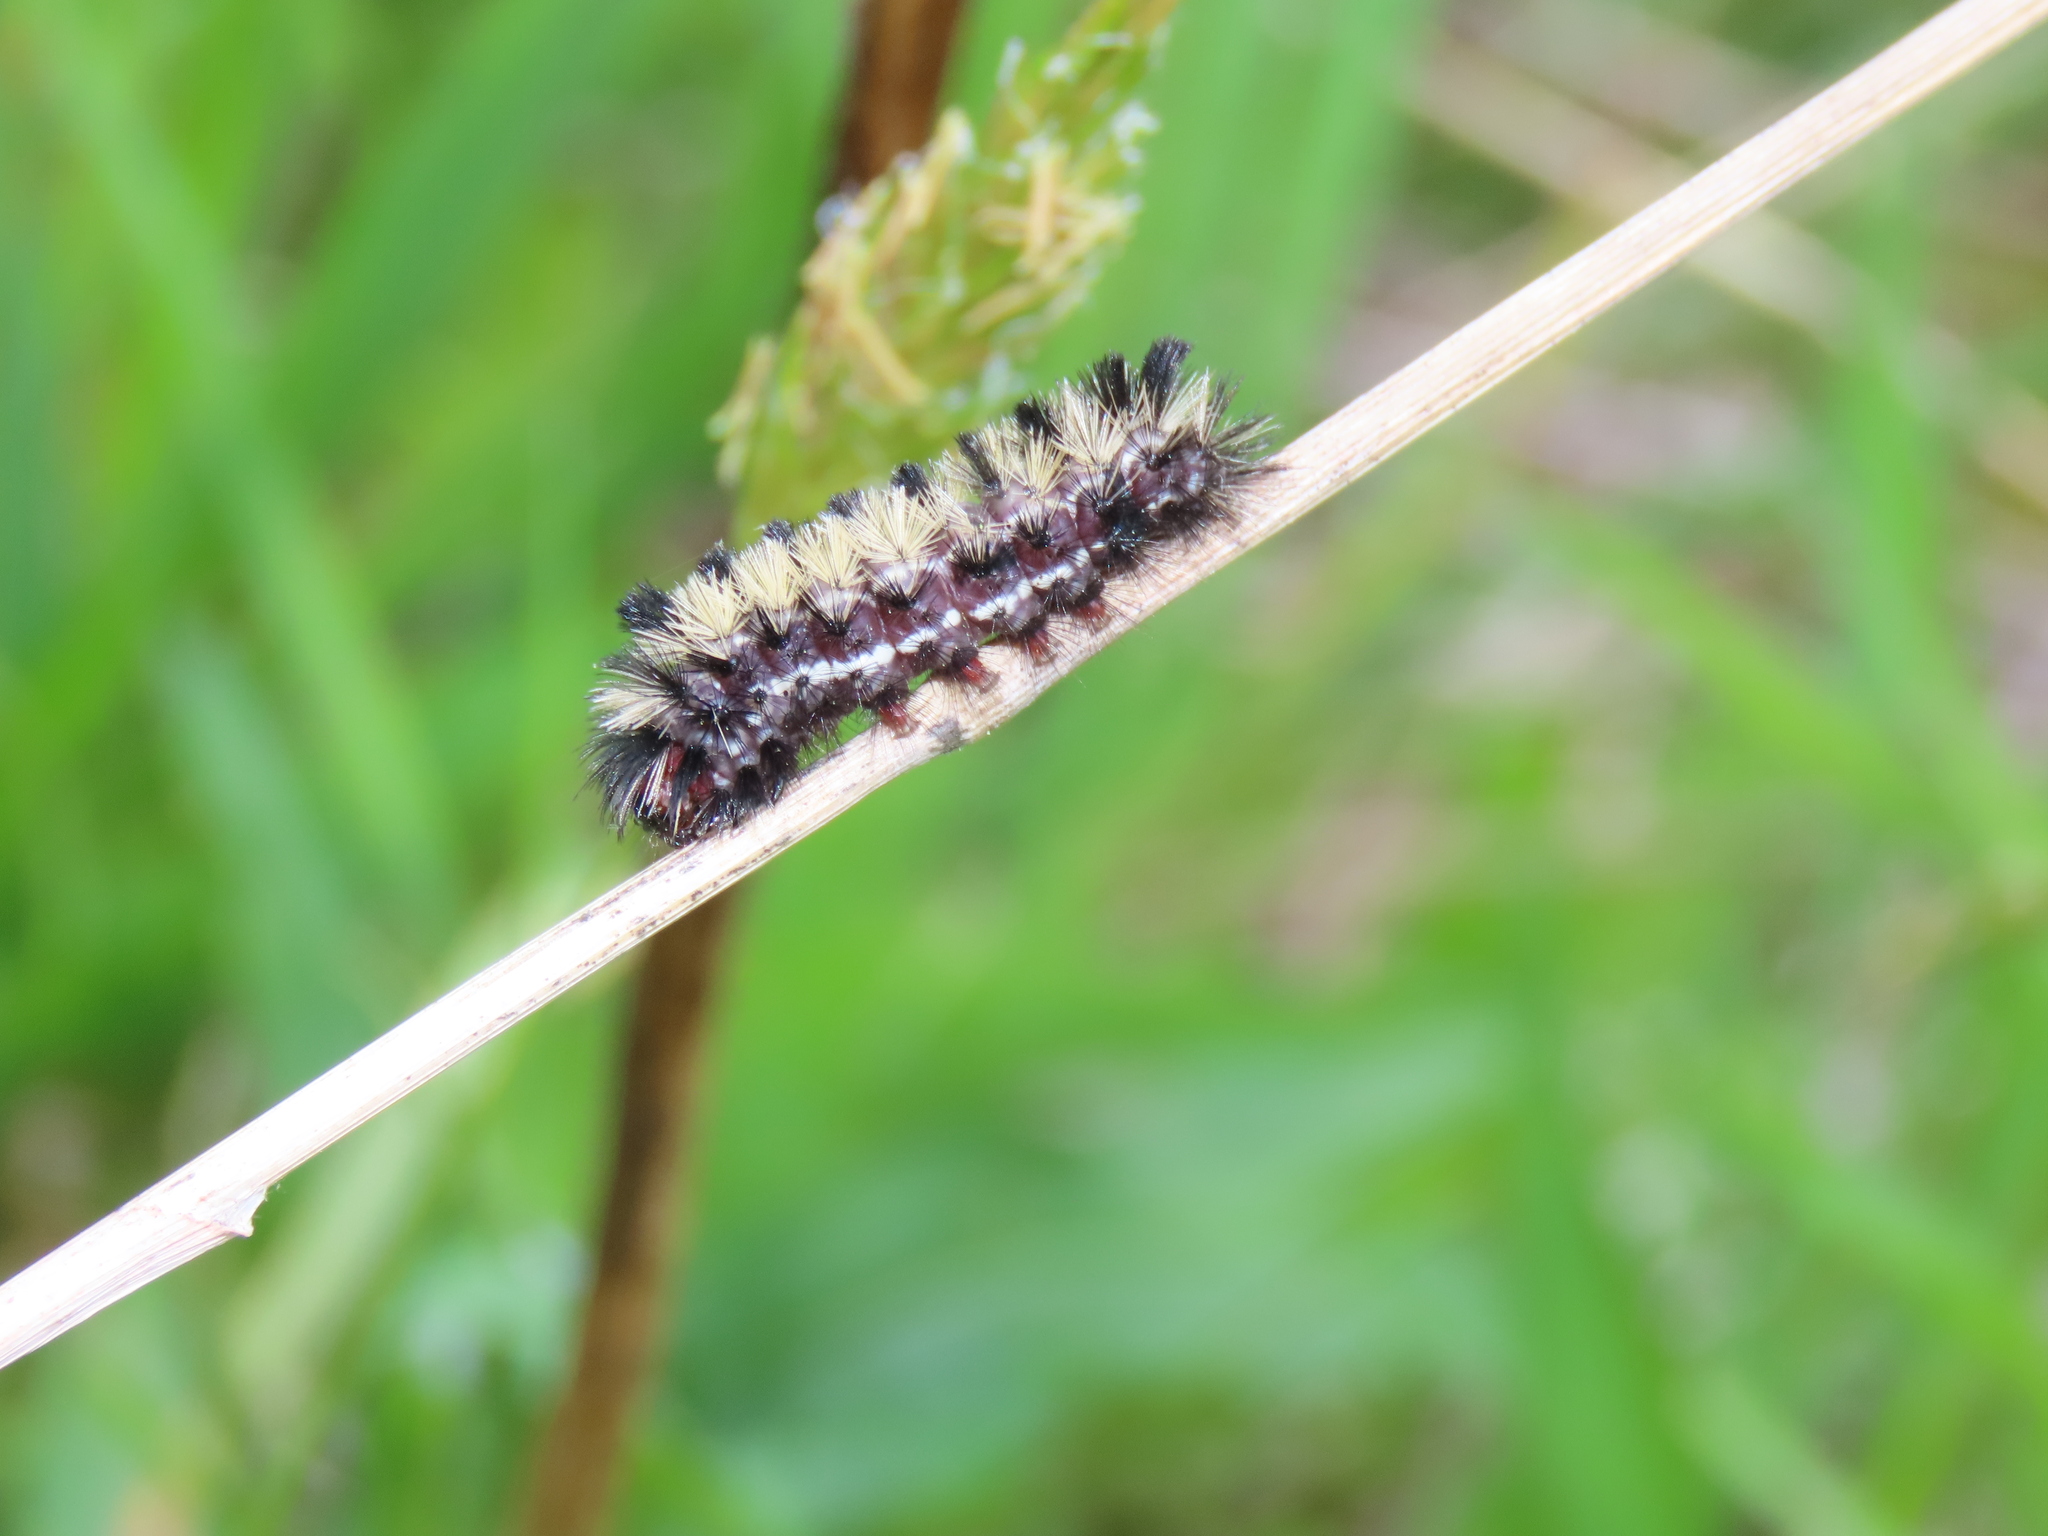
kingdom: Animalia
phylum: Arthropoda
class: Insecta
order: Lepidoptera
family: Erebidae
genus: Ctenucha
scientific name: Ctenucha virginica
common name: Virginia ctenucha moth
